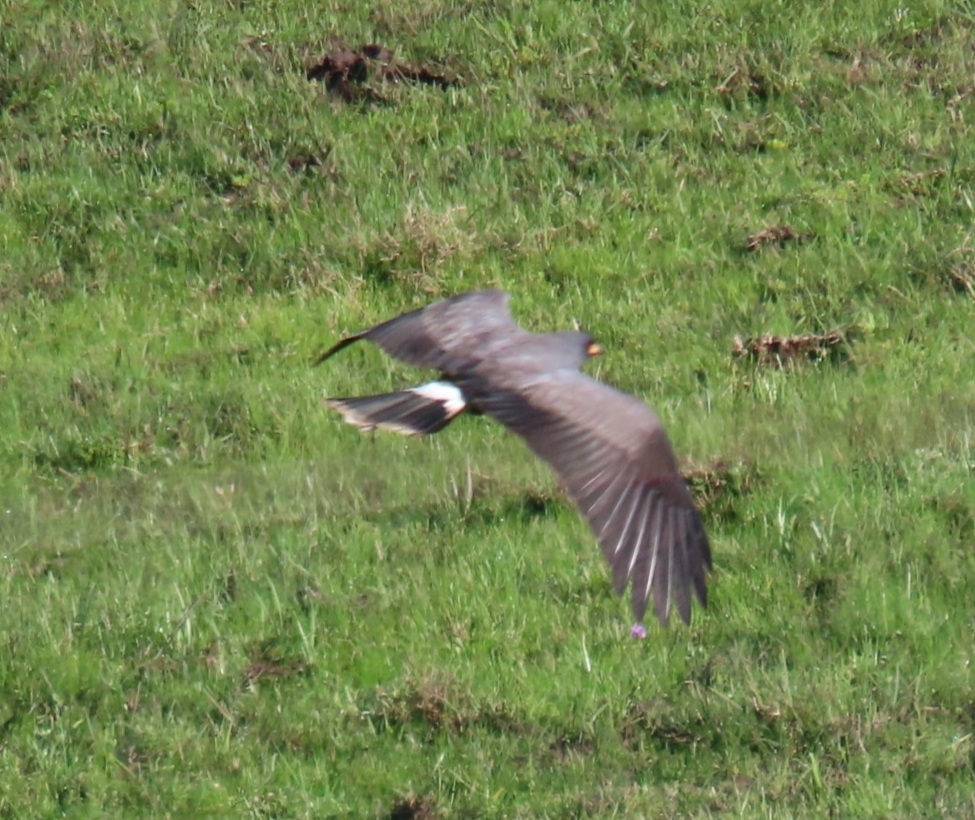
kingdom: Animalia
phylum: Chordata
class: Aves
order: Accipitriformes
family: Accipitridae
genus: Rostrhamus
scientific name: Rostrhamus sociabilis
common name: Snail kite
